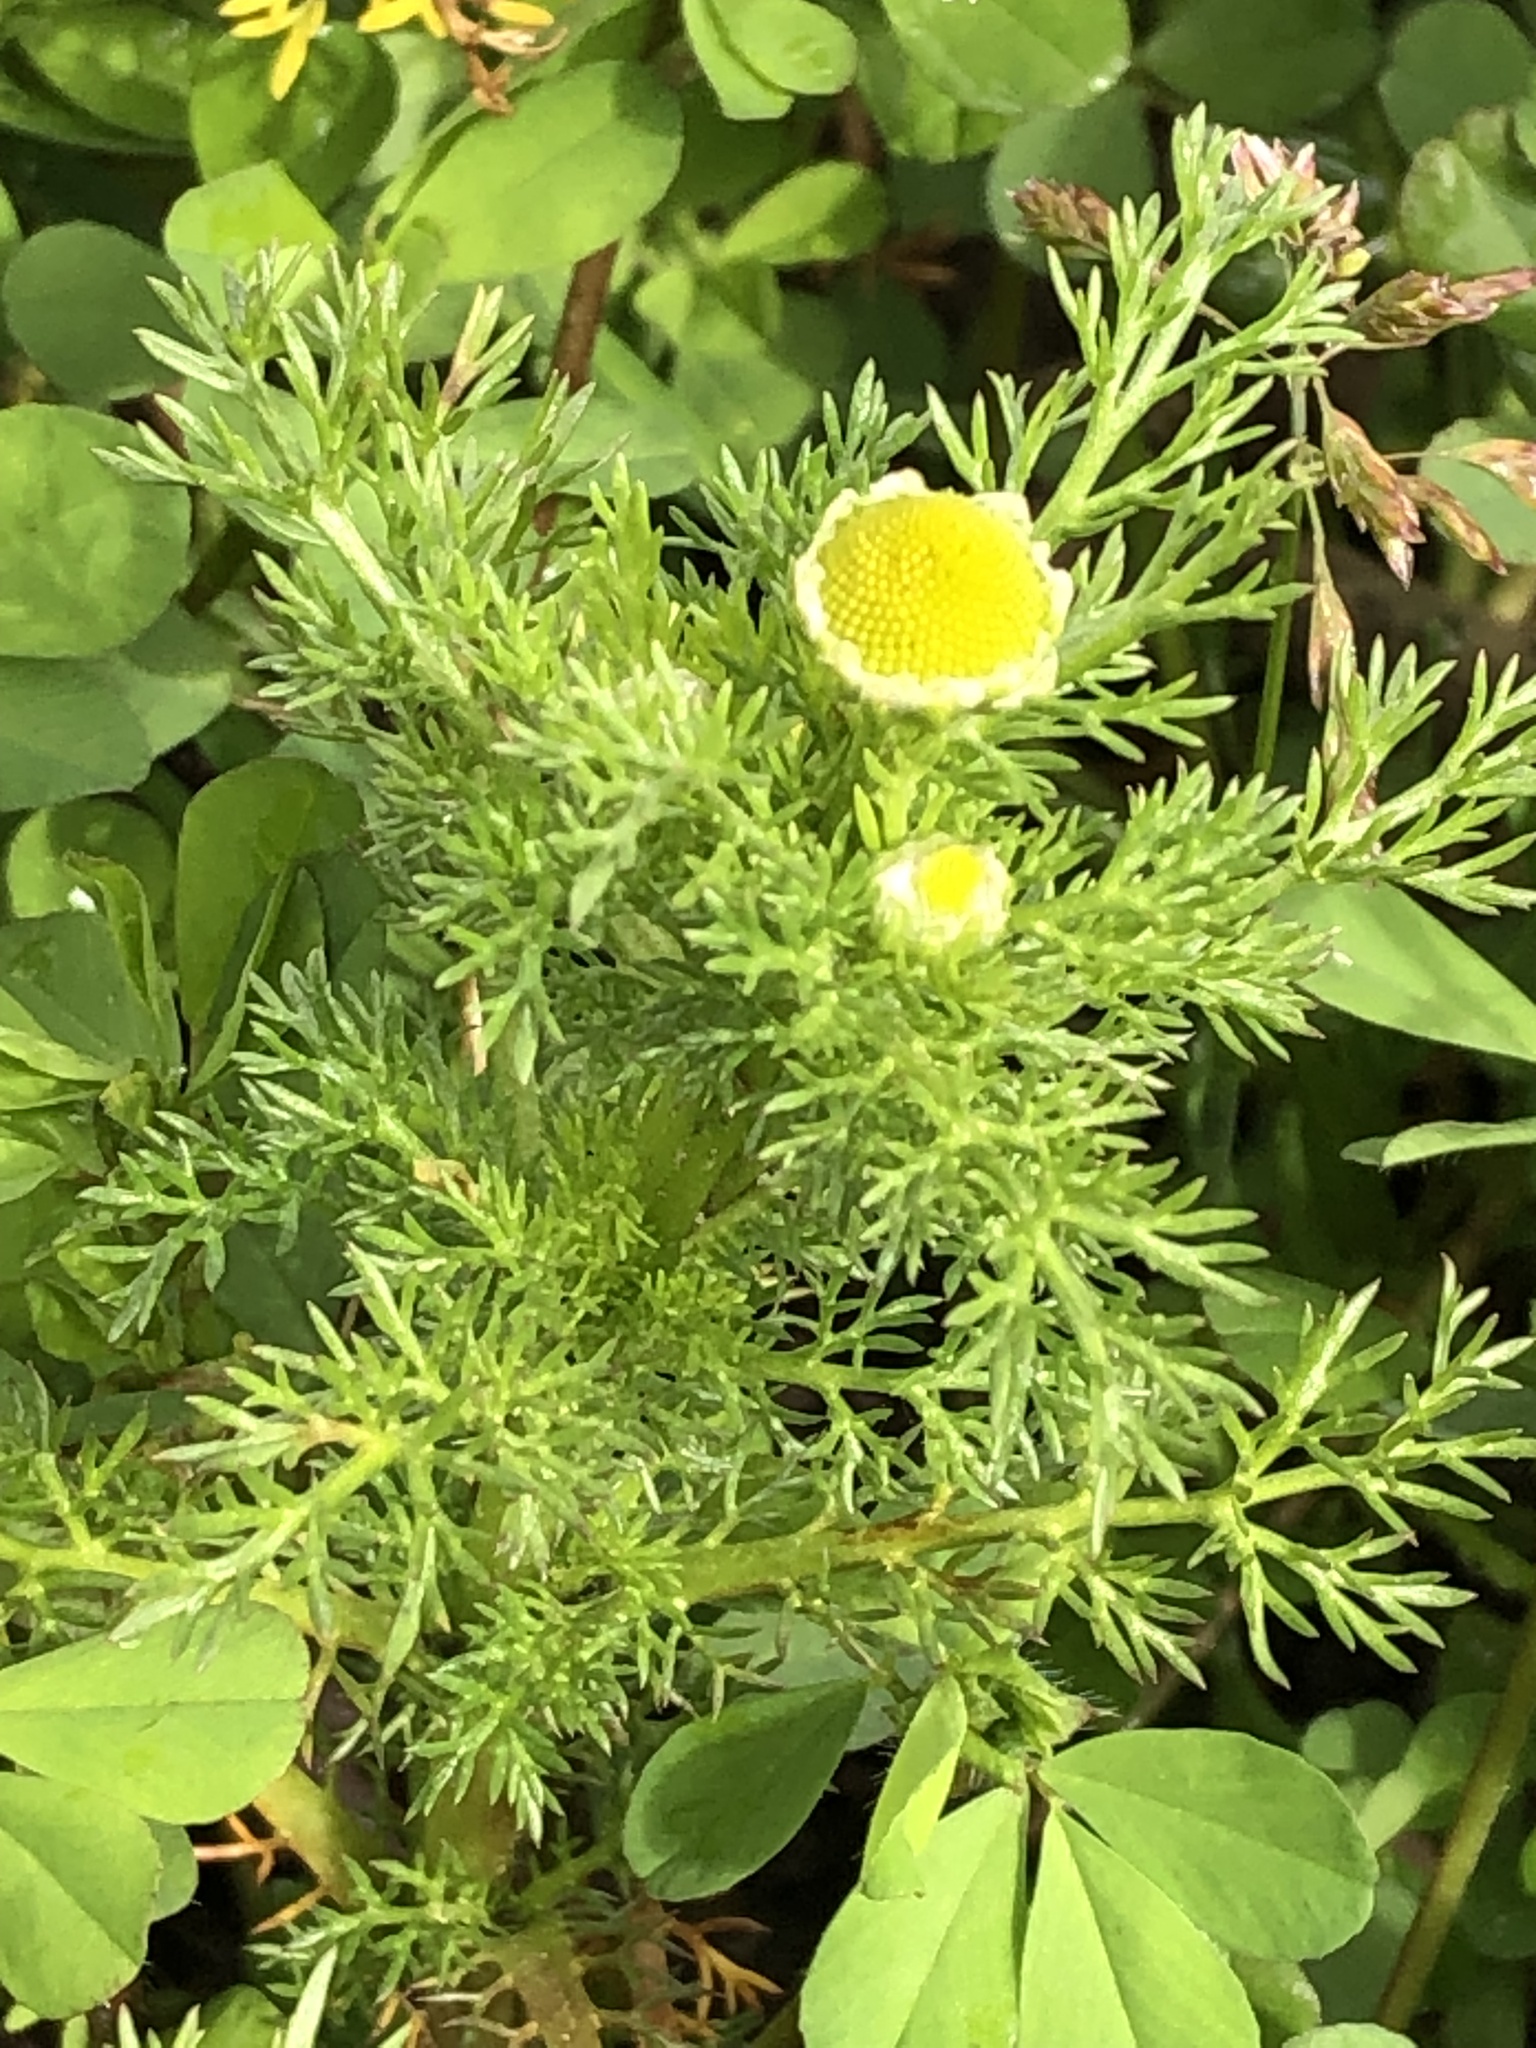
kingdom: Plantae
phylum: Tracheophyta
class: Magnoliopsida
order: Asterales
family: Asteraceae
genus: Matricaria
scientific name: Matricaria discoidea
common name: Disc mayweed
